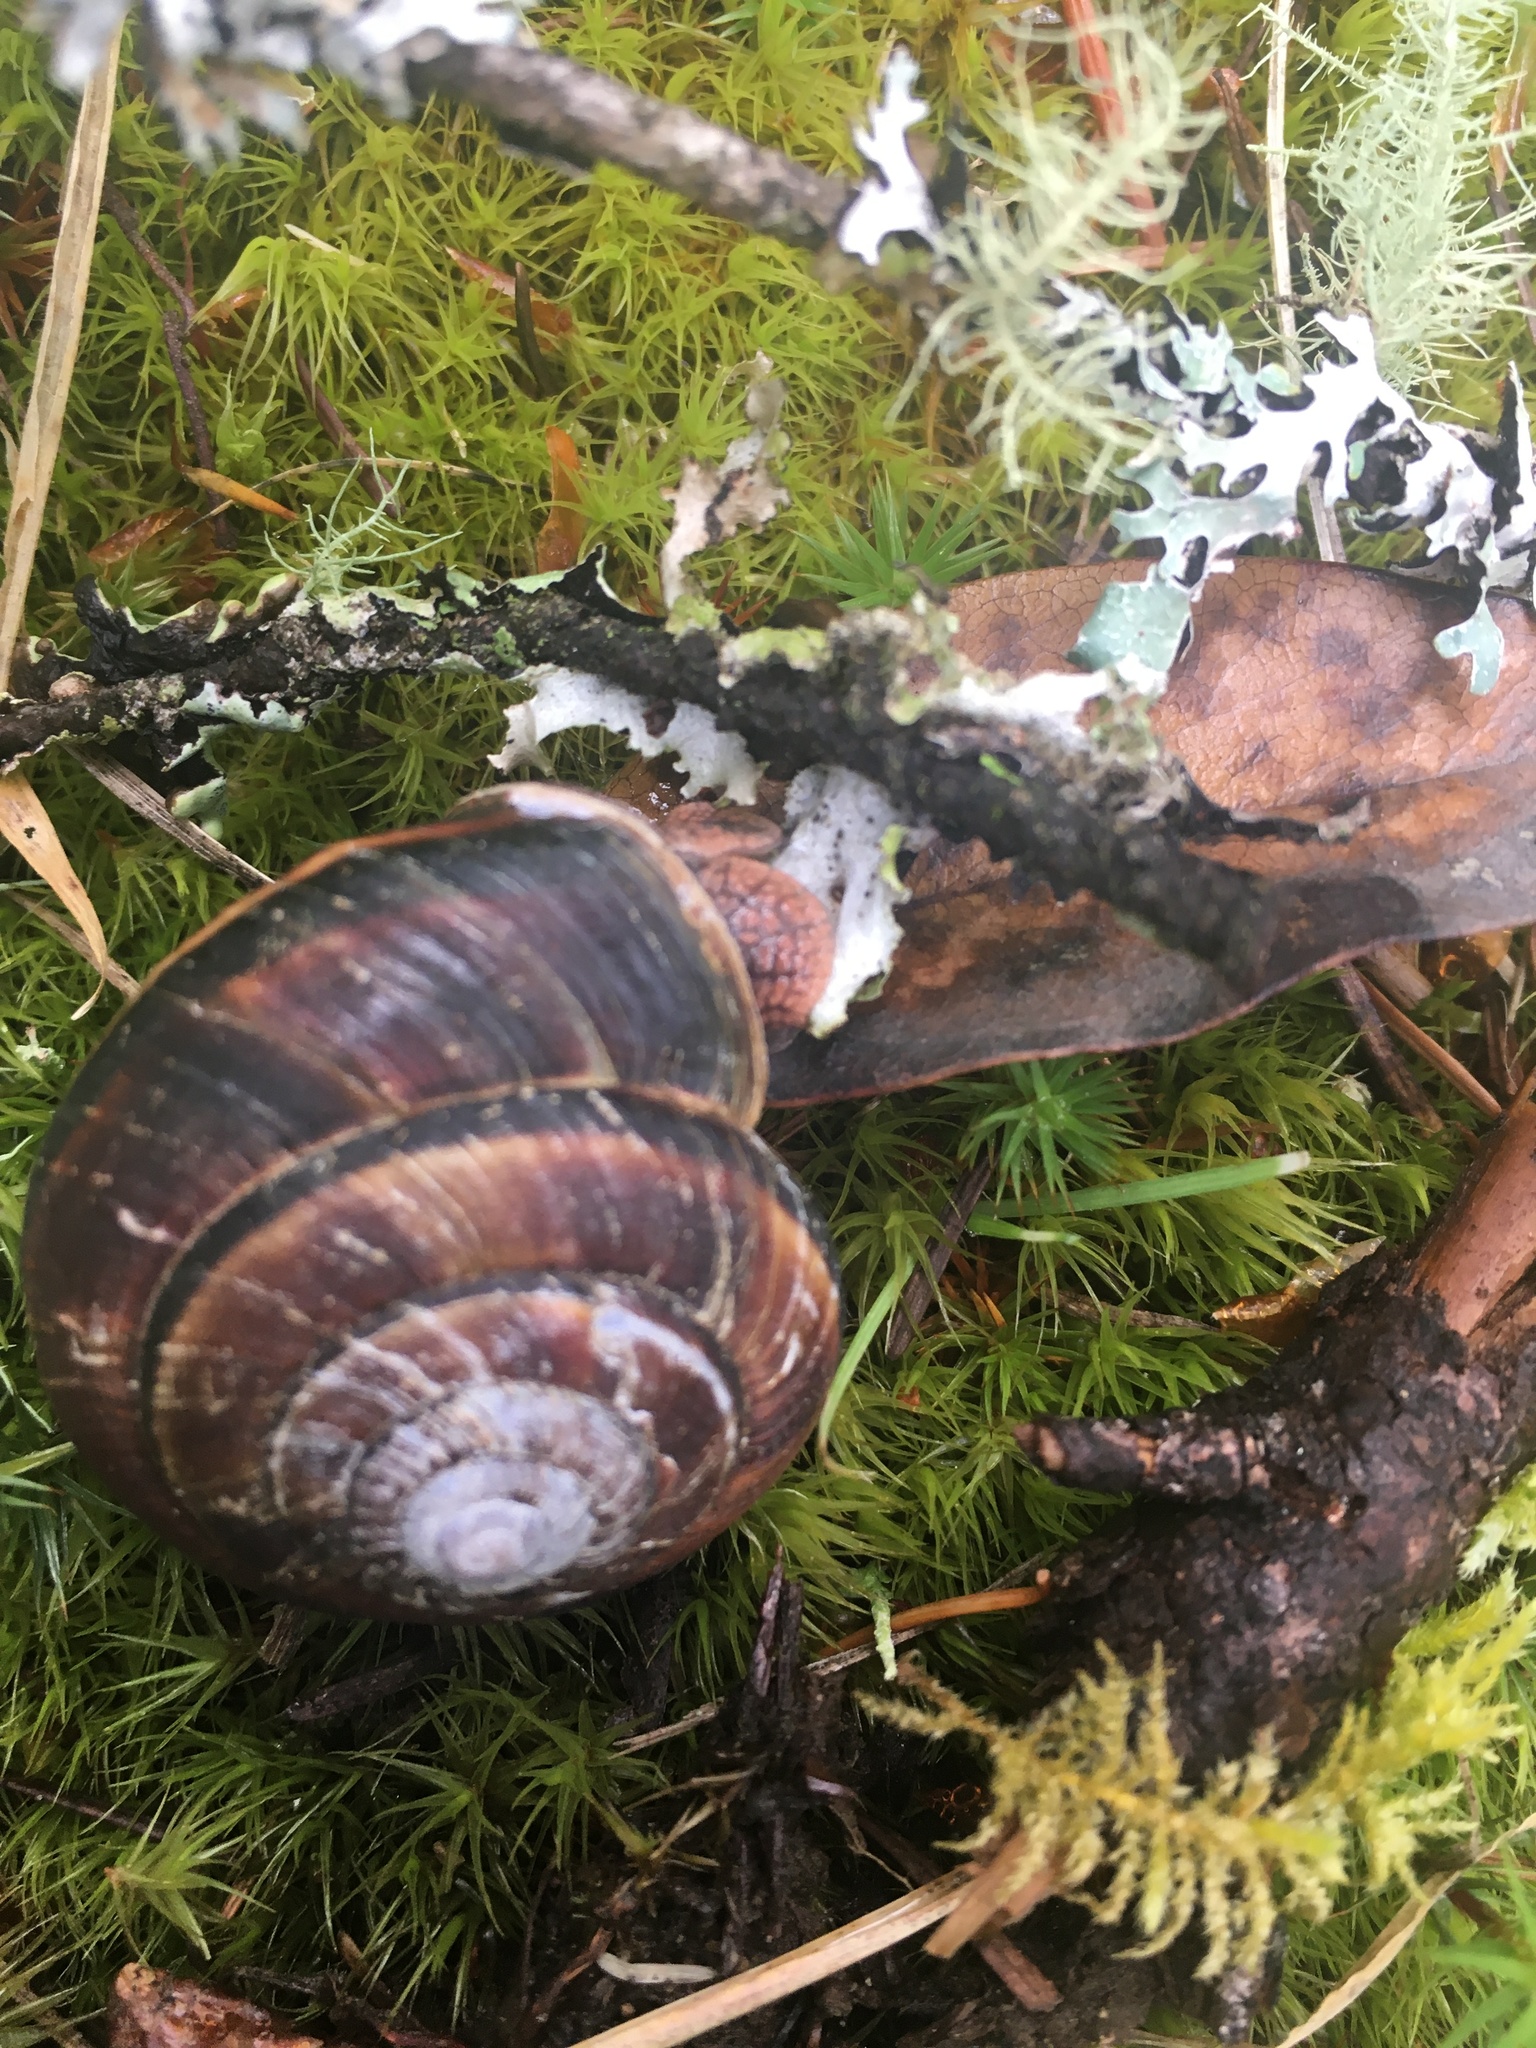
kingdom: Animalia
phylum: Mollusca
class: Gastropoda
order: Stylommatophora
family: Xanthonychidae
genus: Monadenia
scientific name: Monadenia fidelis
